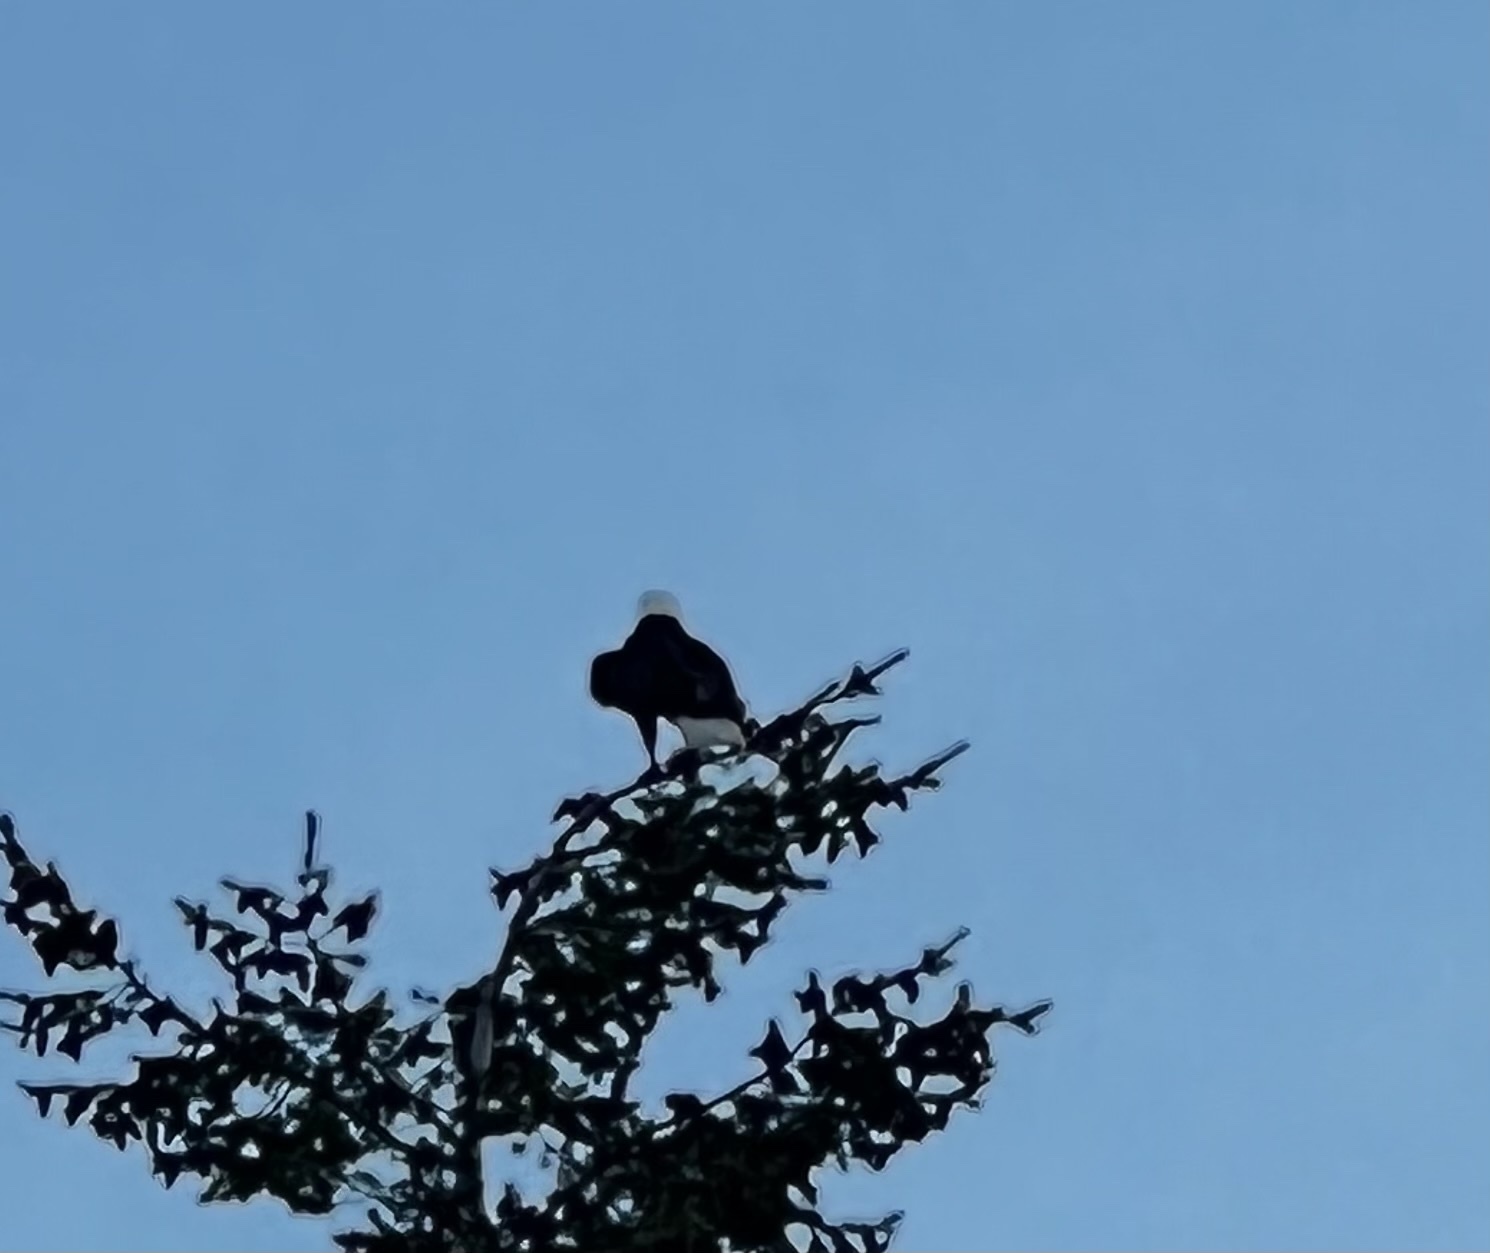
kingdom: Animalia
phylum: Chordata
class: Aves
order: Accipitriformes
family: Accipitridae
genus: Haliaeetus
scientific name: Haliaeetus leucocephalus
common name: Bald eagle
